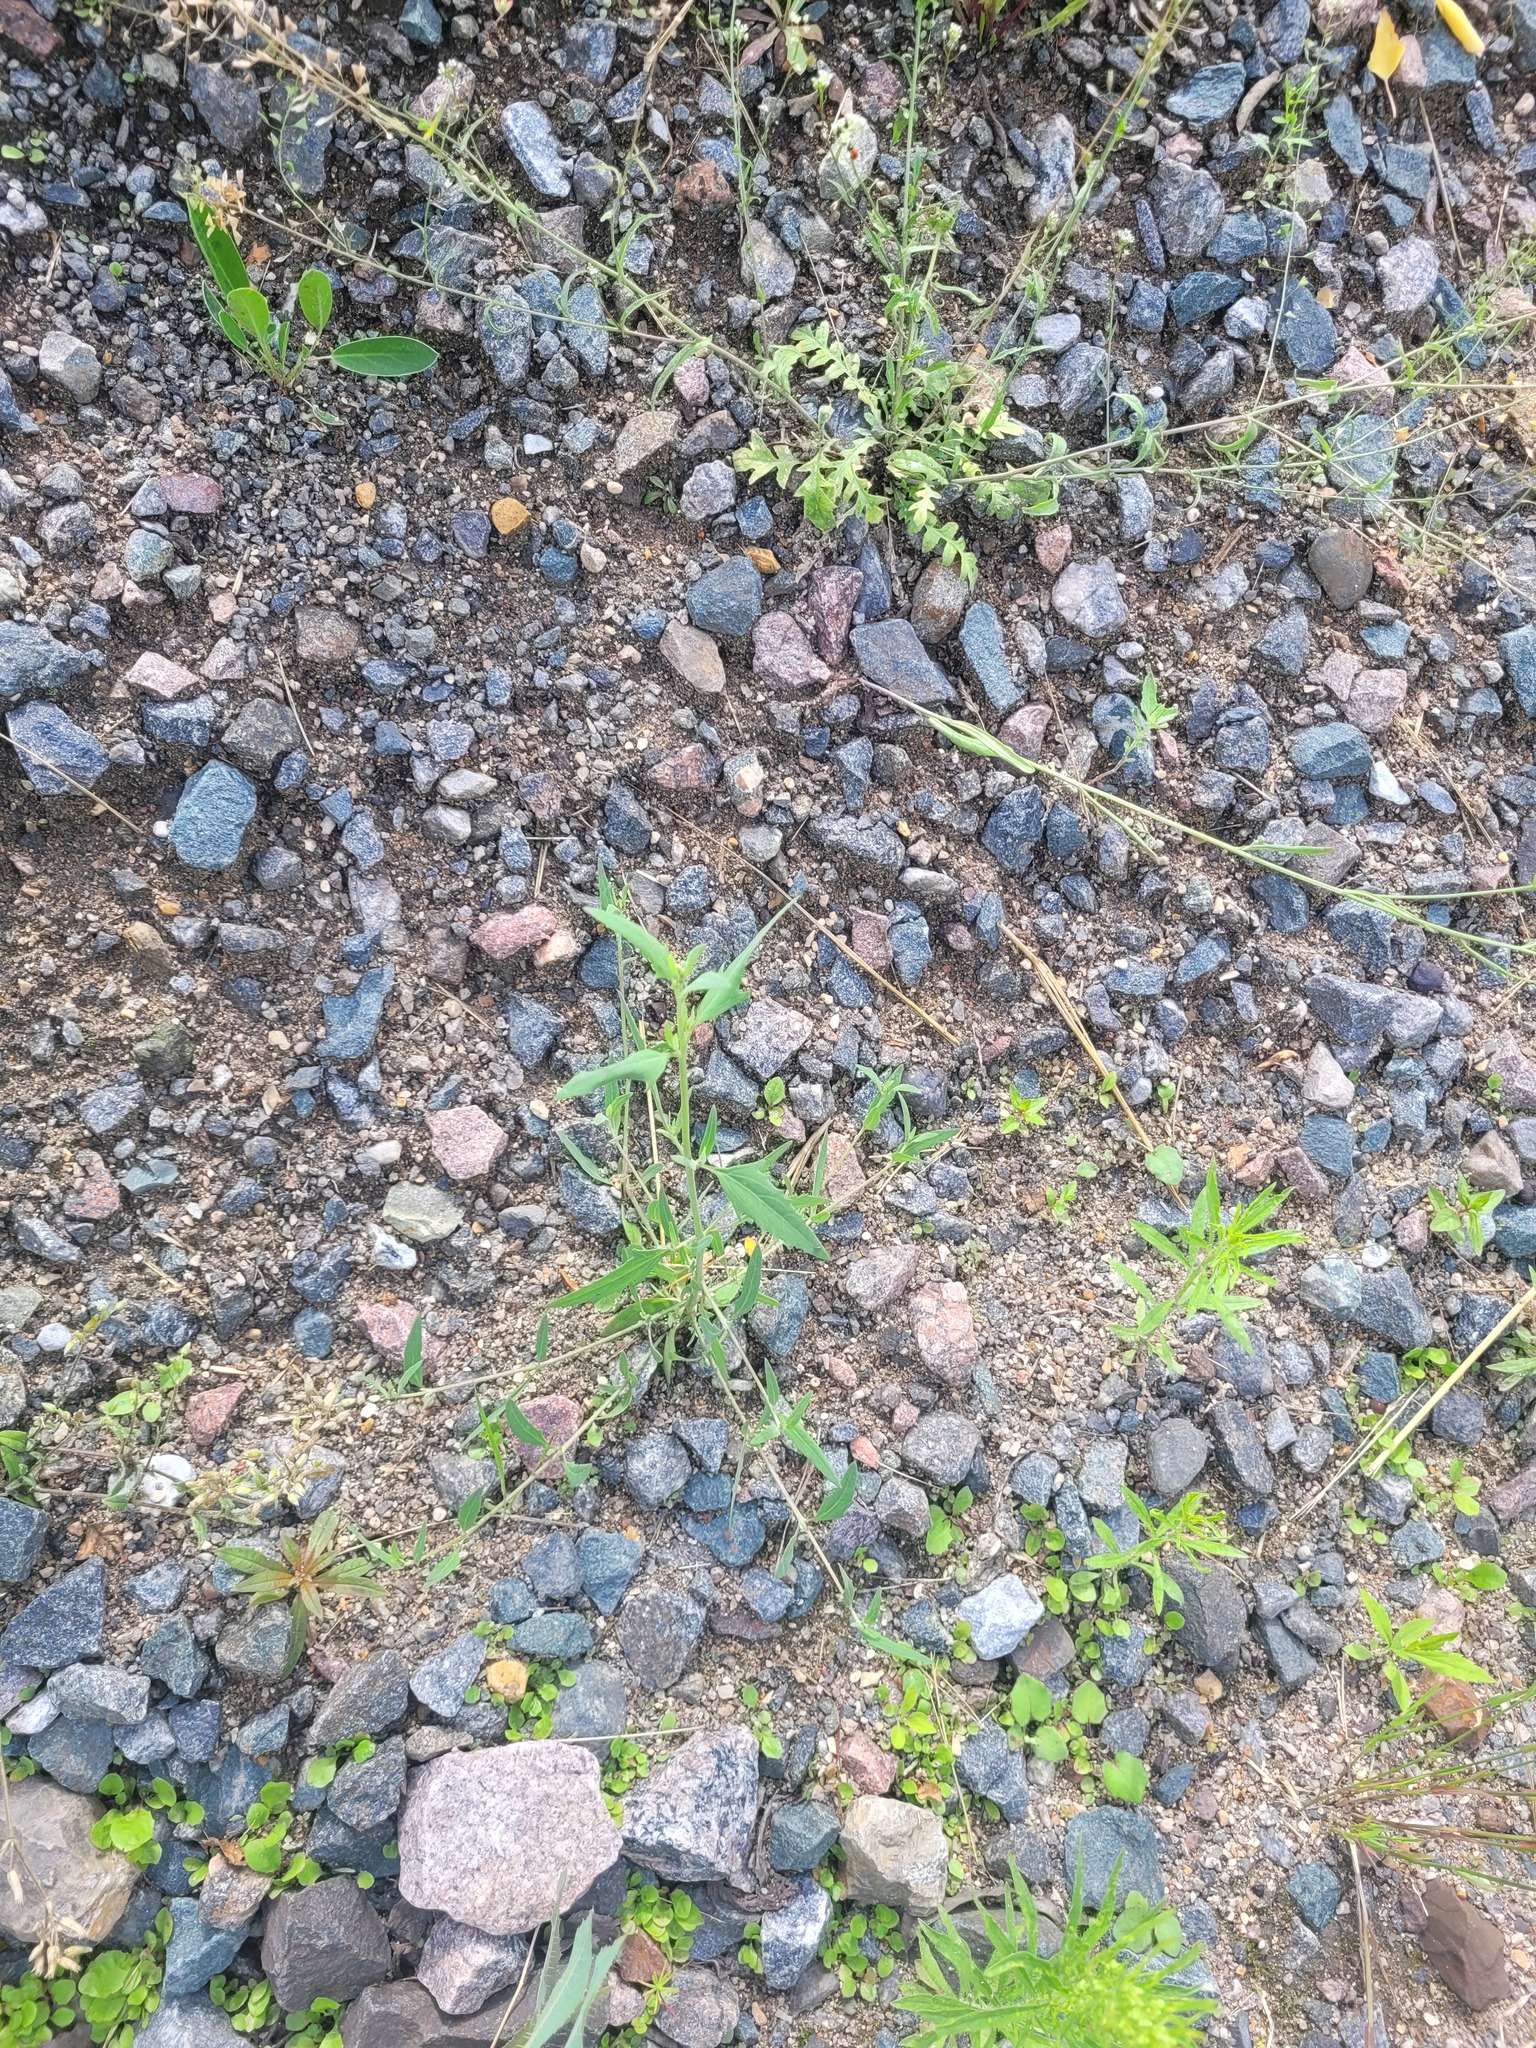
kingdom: Plantae
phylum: Tracheophyta
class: Magnoliopsida
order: Caryophyllales
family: Amaranthaceae
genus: Atriplex
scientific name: Atriplex patula
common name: Common orache
